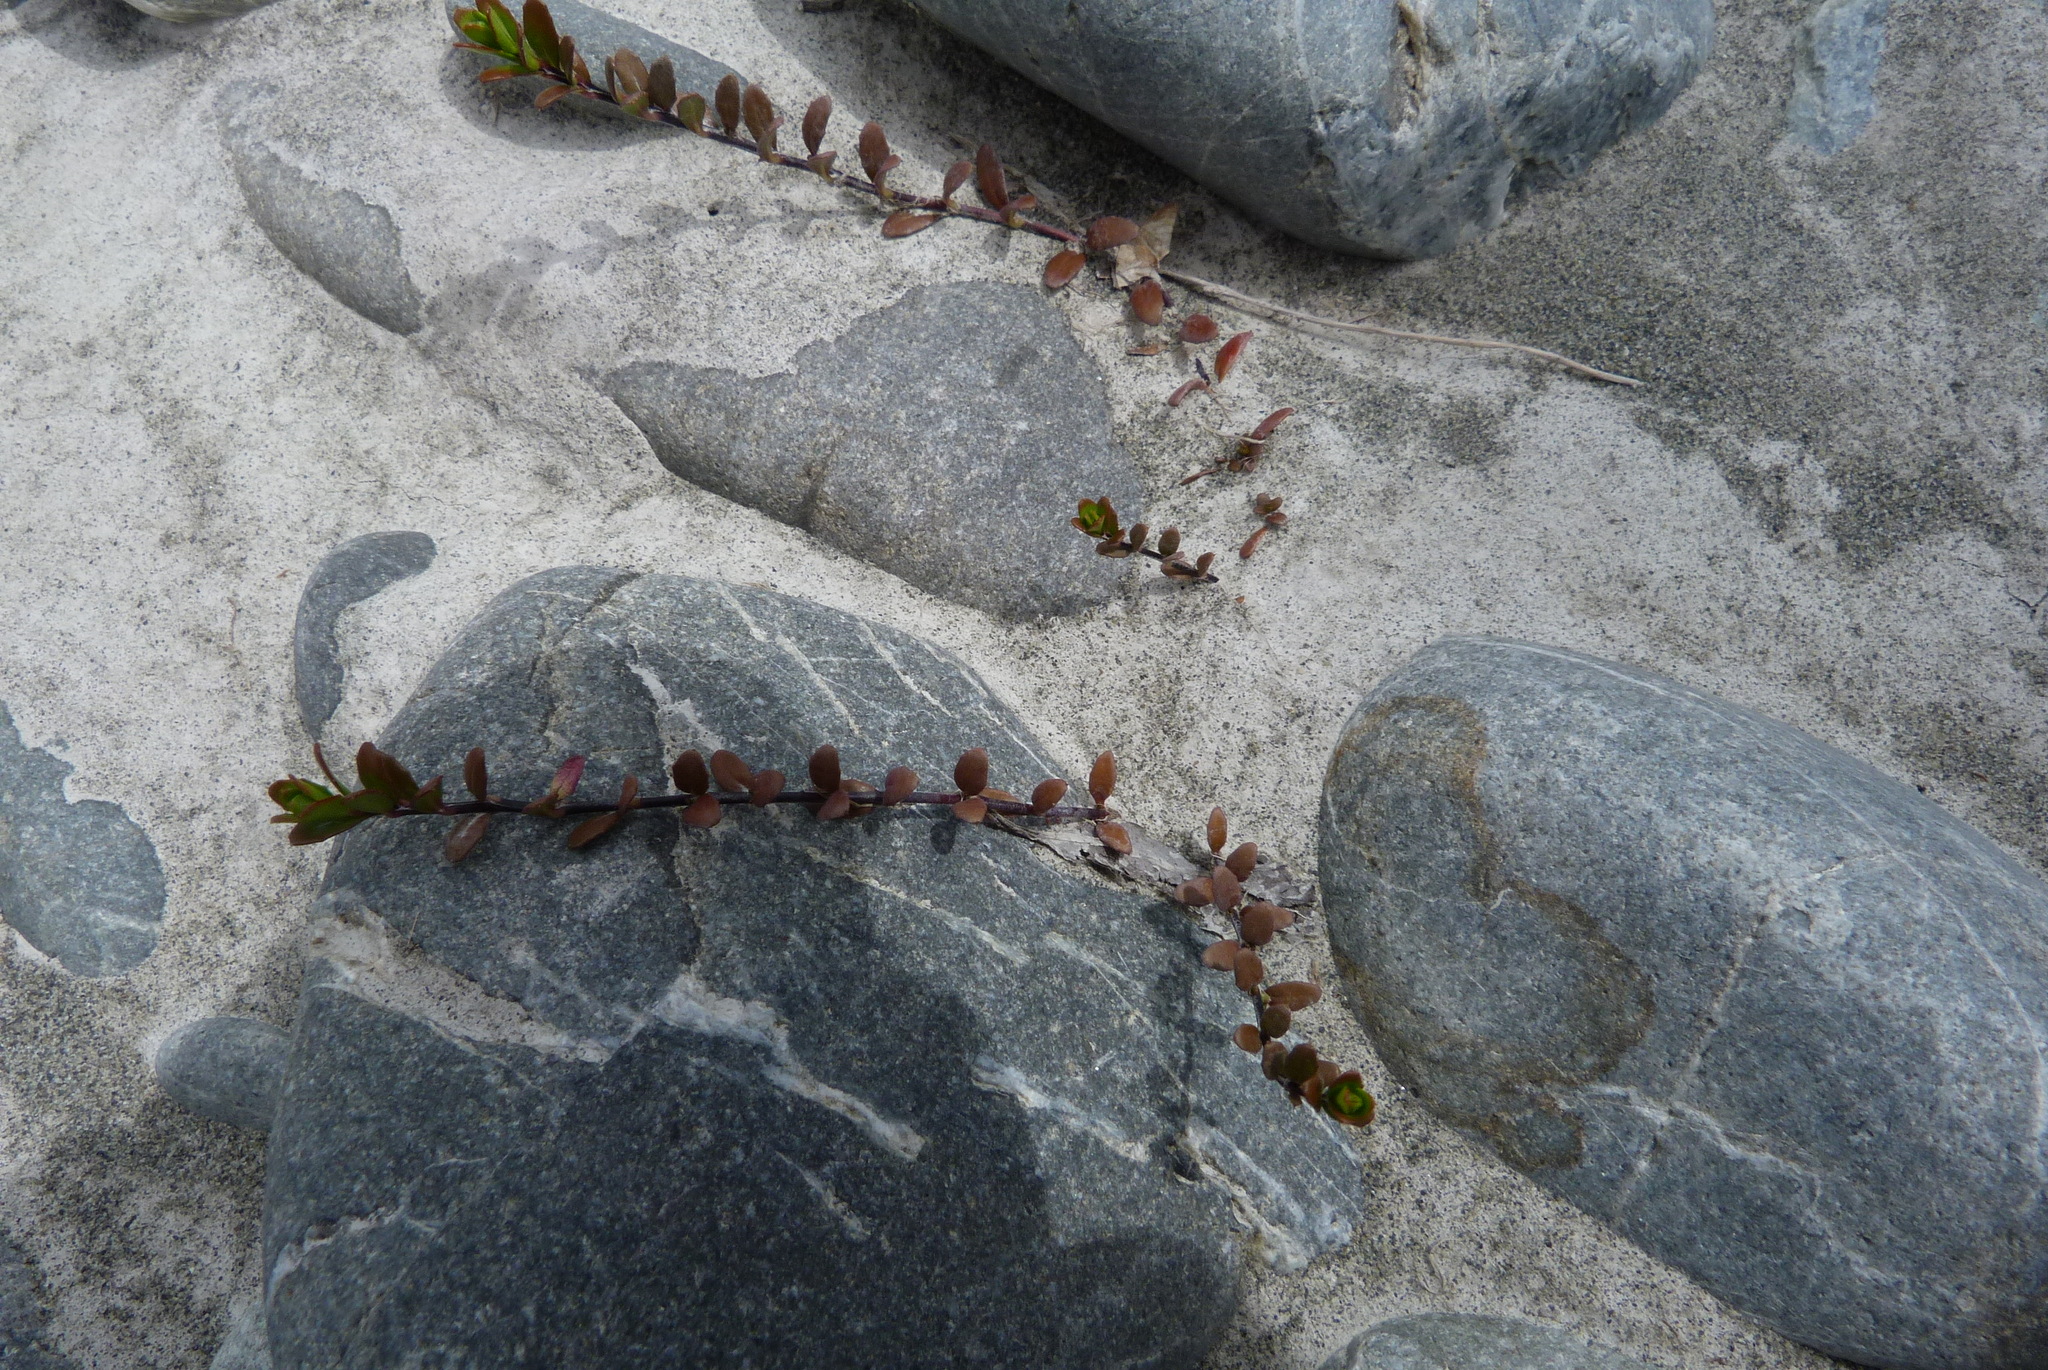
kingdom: Plantae
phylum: Tracheophyta
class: Magnoliopsida
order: Myrtales
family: Onagraceae
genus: Epilobium
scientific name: Epilobium microphyllum
